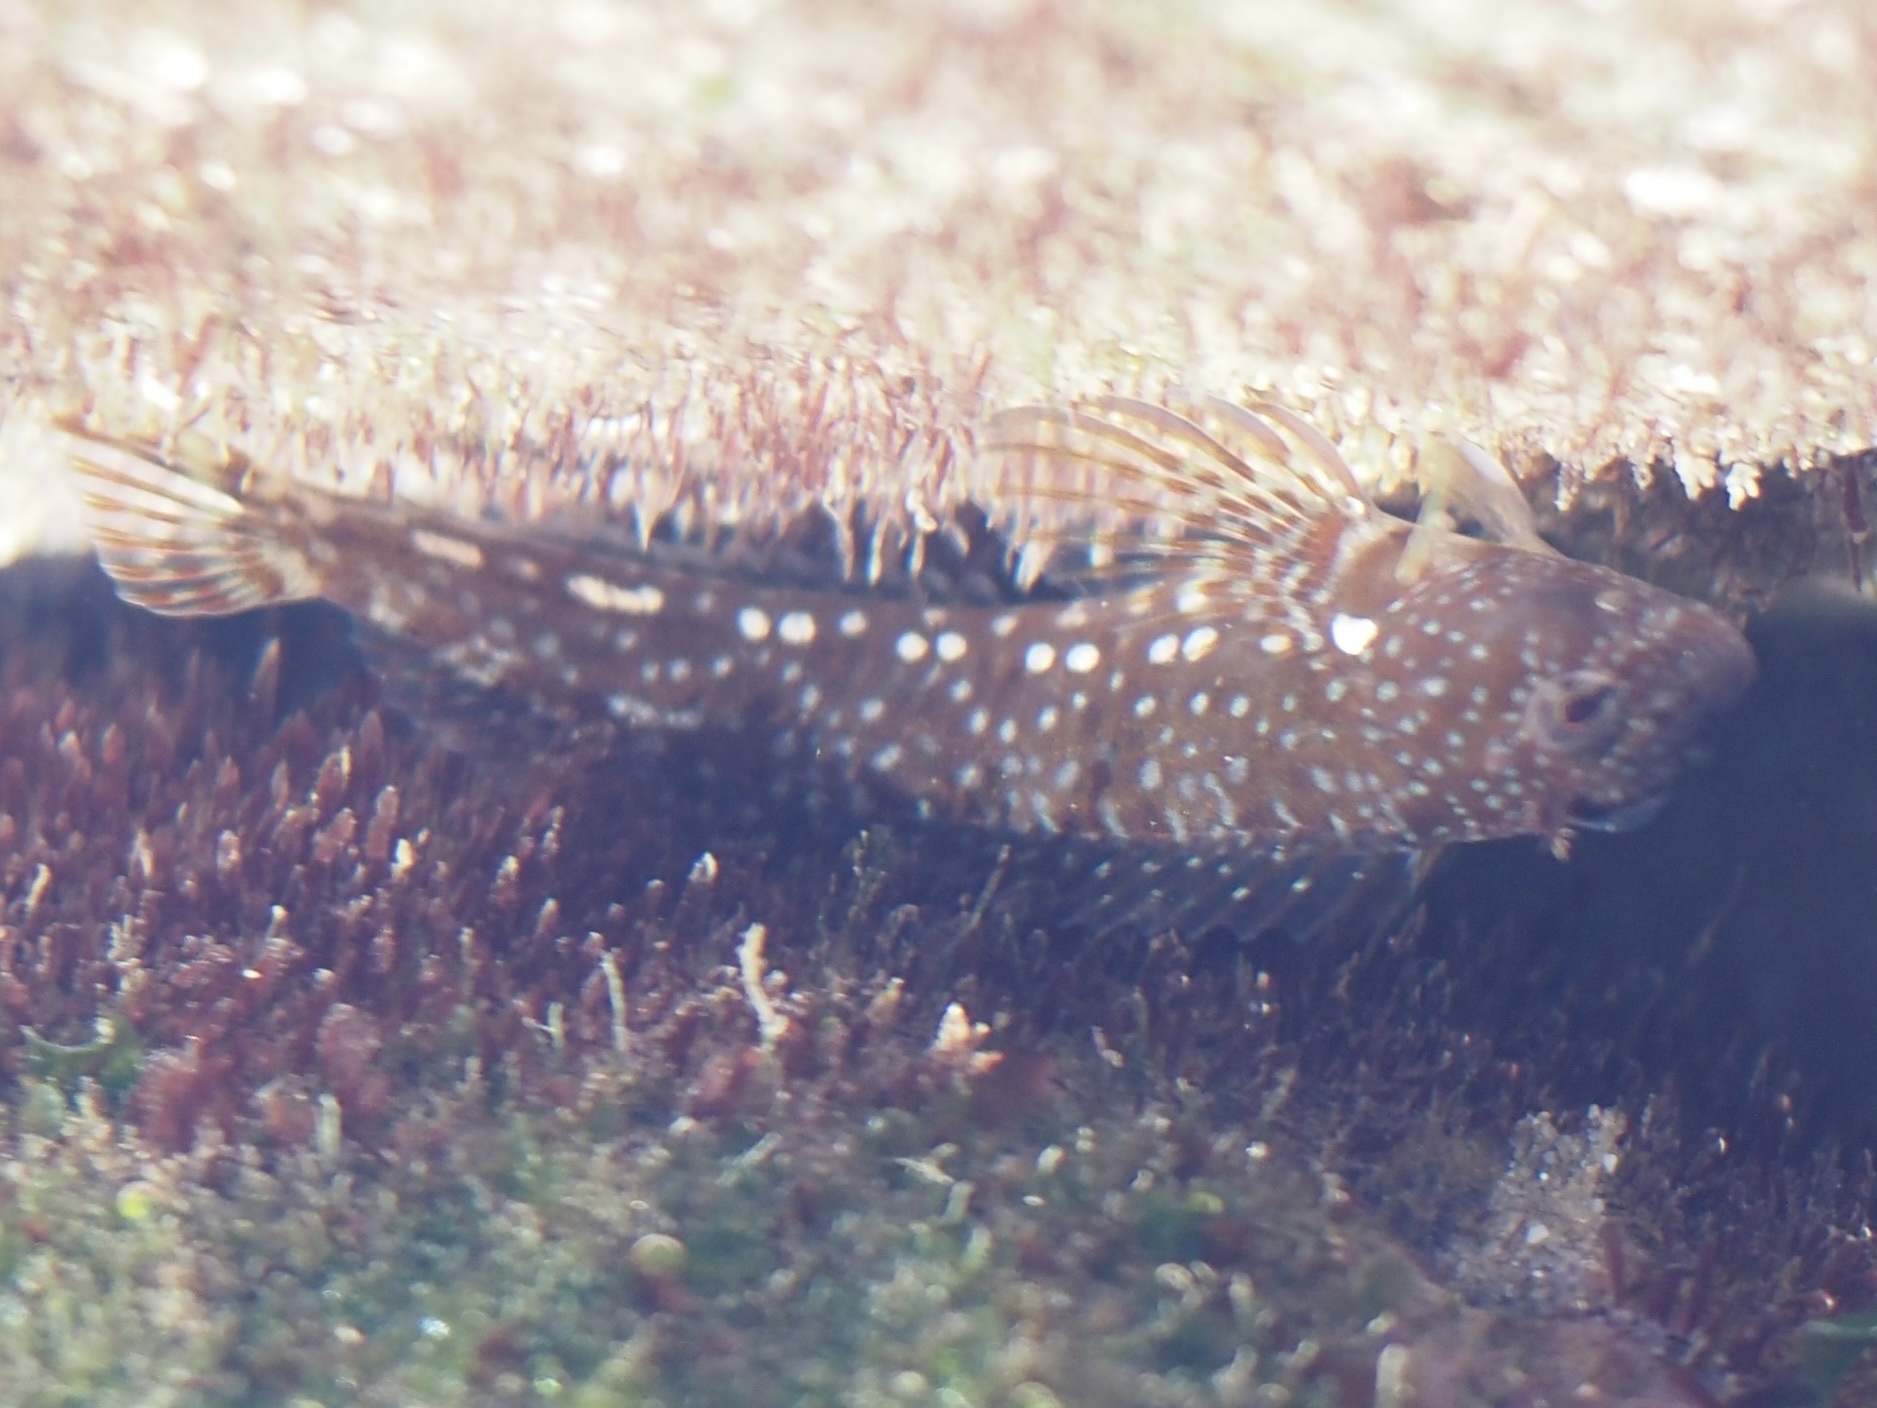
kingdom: Animalia
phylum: Chordata
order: Perciformes
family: Blenniidae
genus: Coryphoblennius
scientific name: Coryphoblennius galerita
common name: Montagu's blenny
